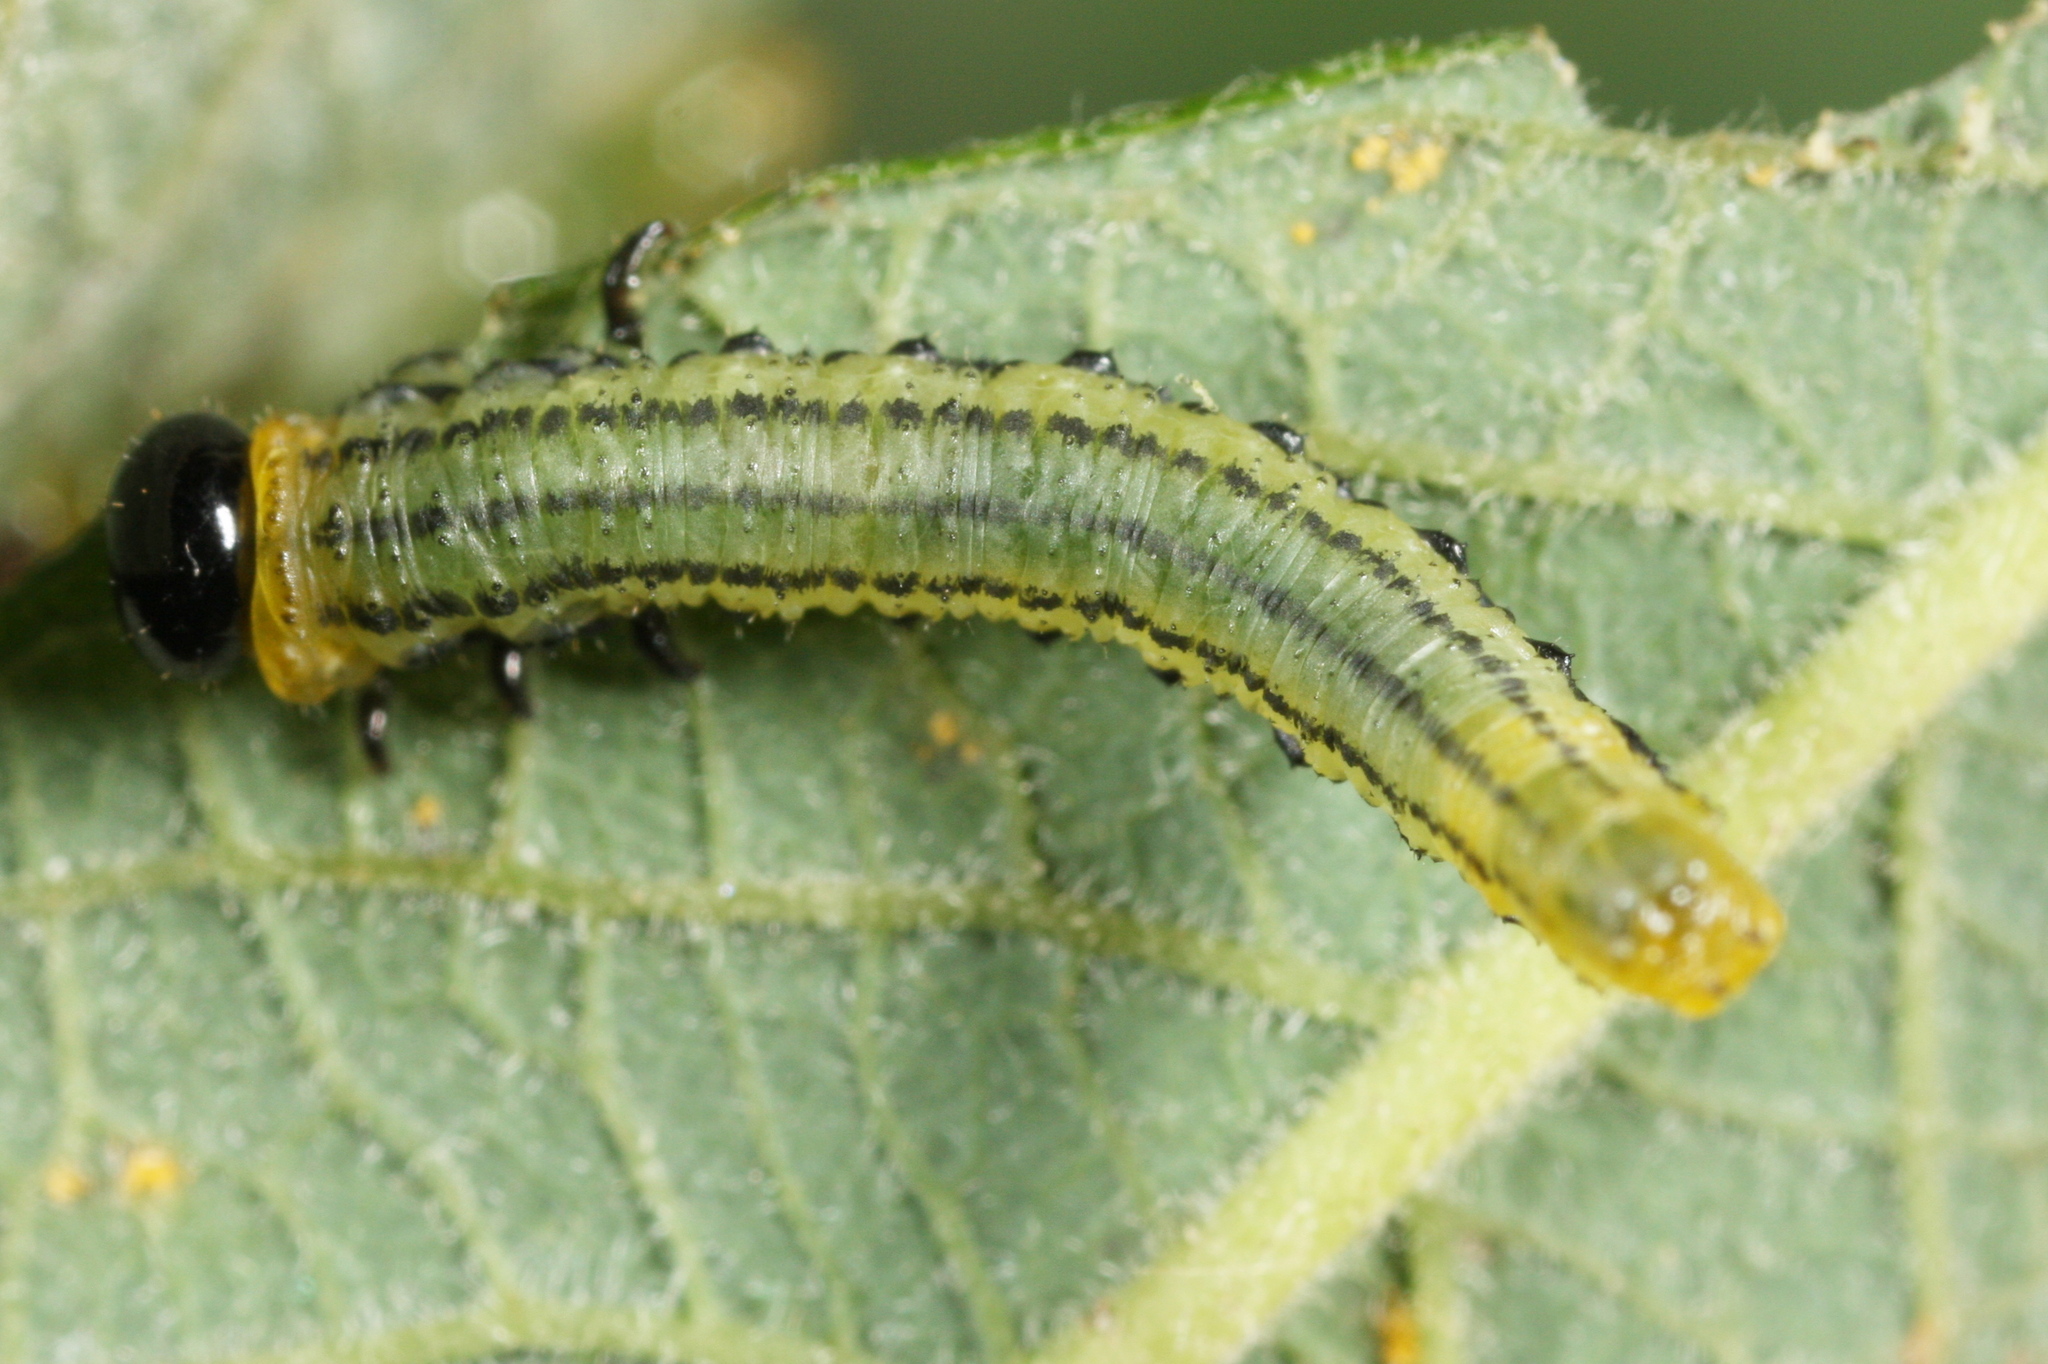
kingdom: Animalia
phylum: Arthropoda
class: Insecta
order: Hymenoptera
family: Tenthredinidae
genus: Nematus
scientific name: Nematus pavidus
